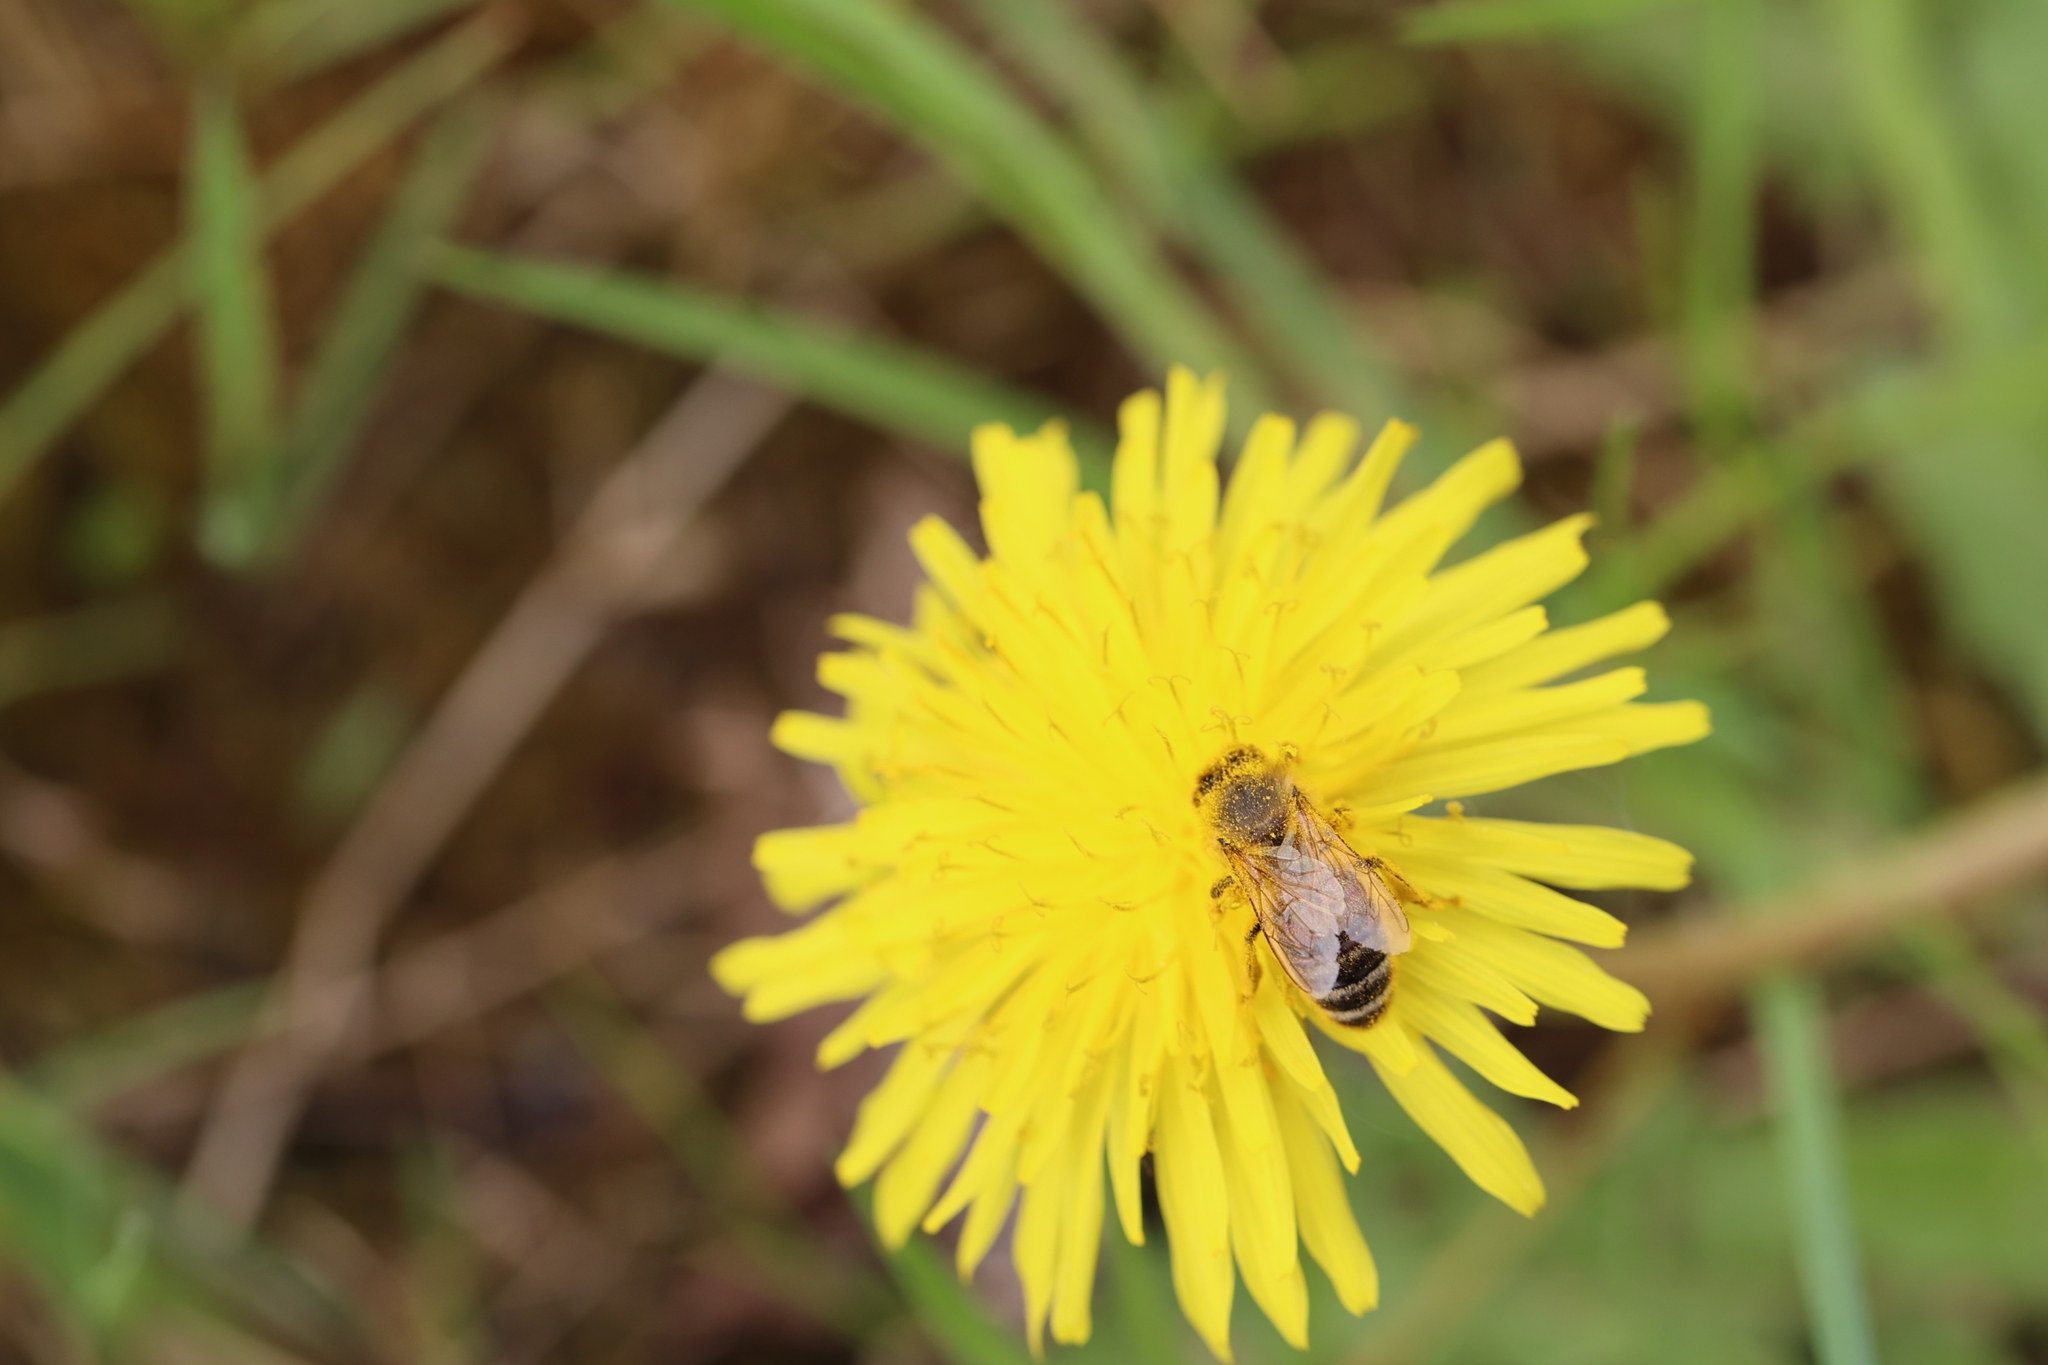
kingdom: Animalia
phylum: Arthropoda
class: Insecta
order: Hymenoptera
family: Apidae
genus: Apis
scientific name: Apis mellifera
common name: Honey bee
